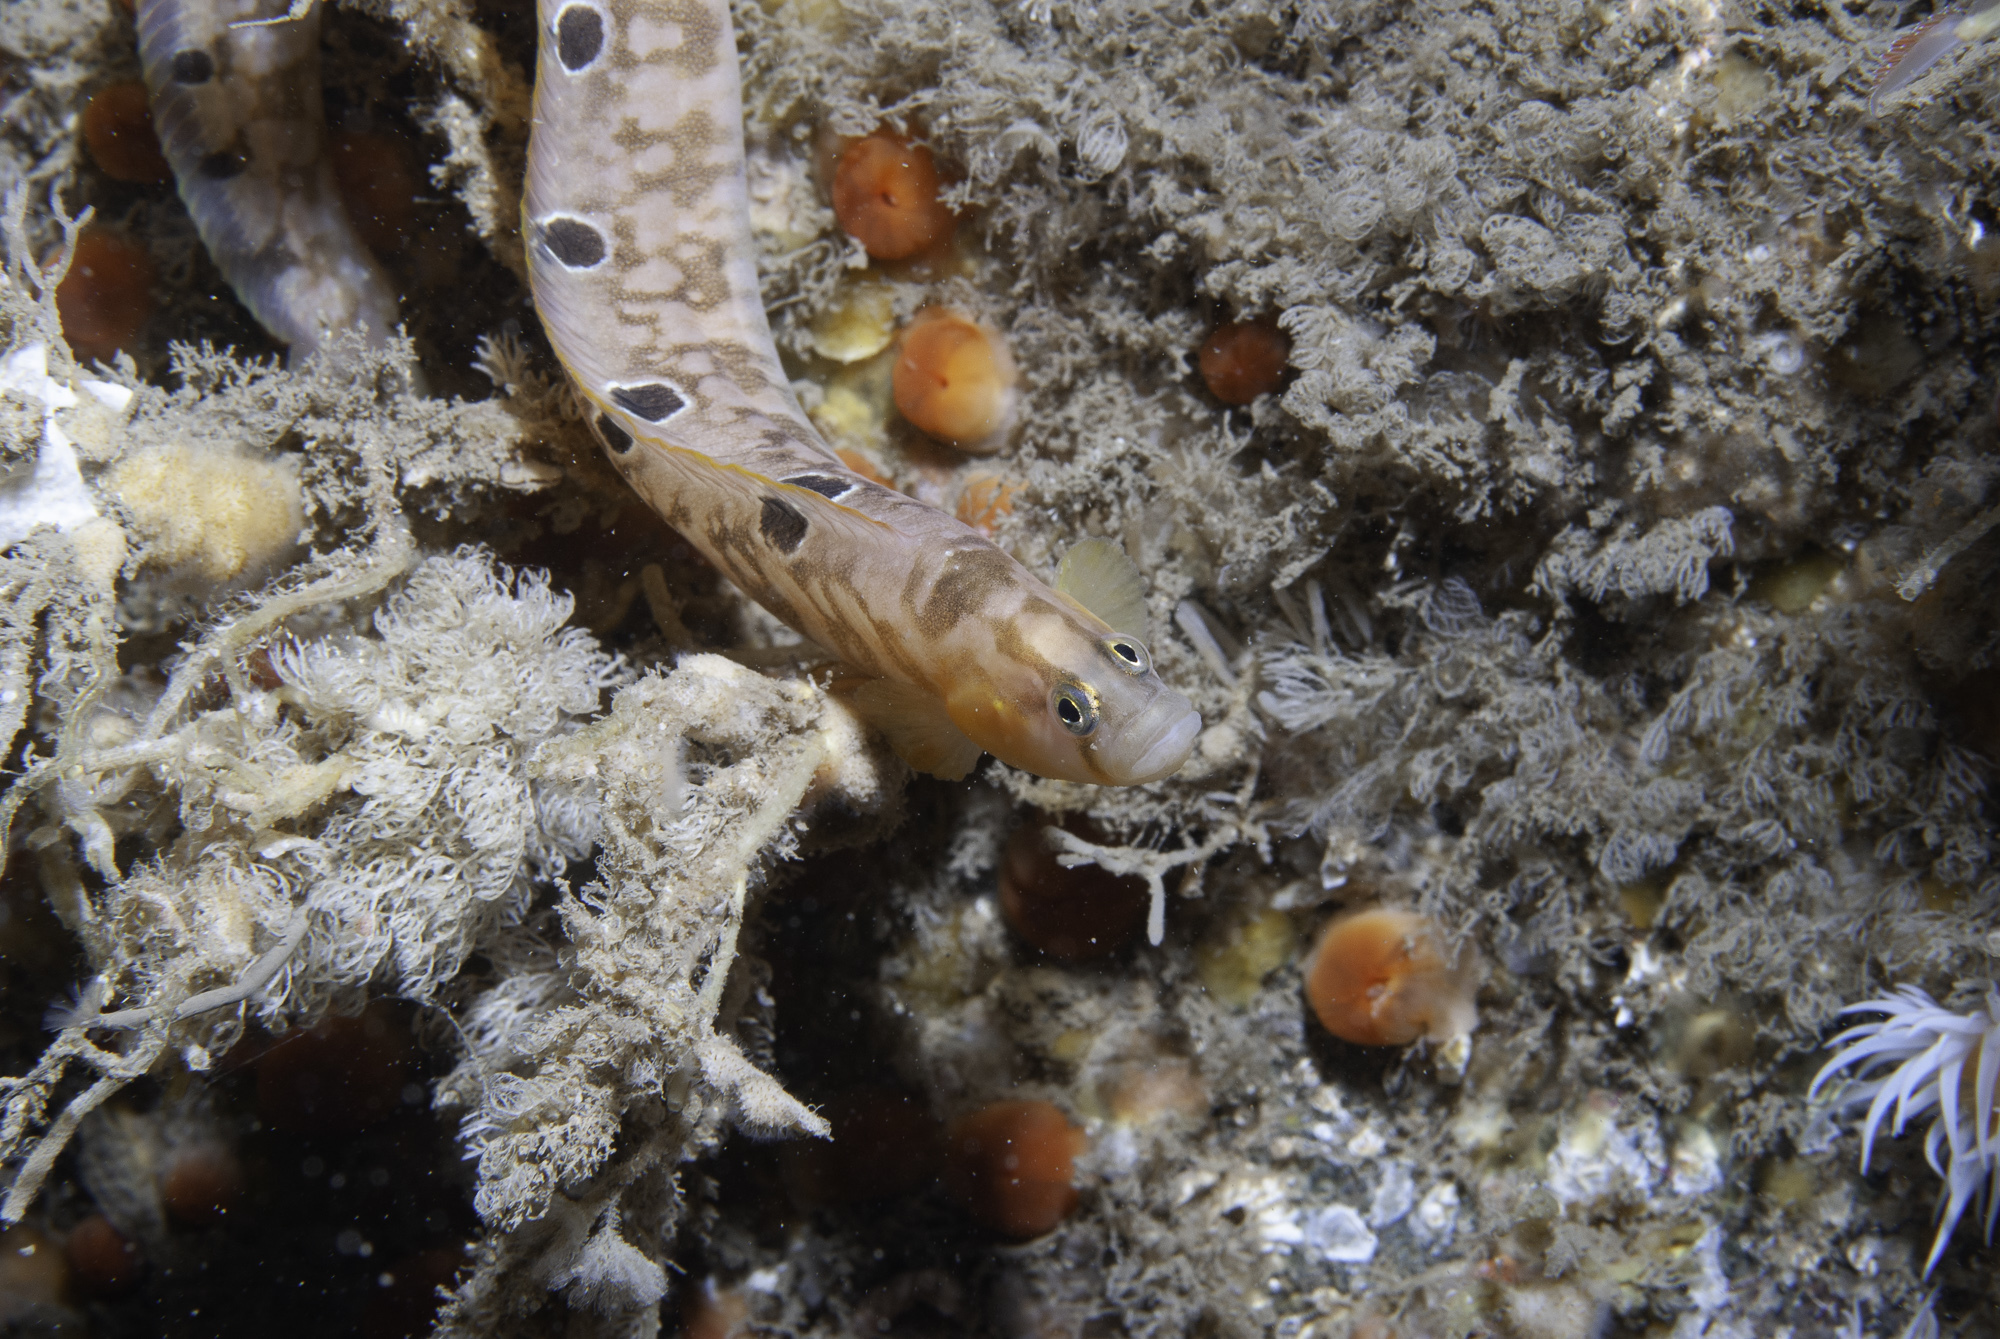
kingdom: Animalia
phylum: Chordata
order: Perciformes
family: Pholidae
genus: Pholis
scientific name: Pholis gunnellus
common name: Butterfish
